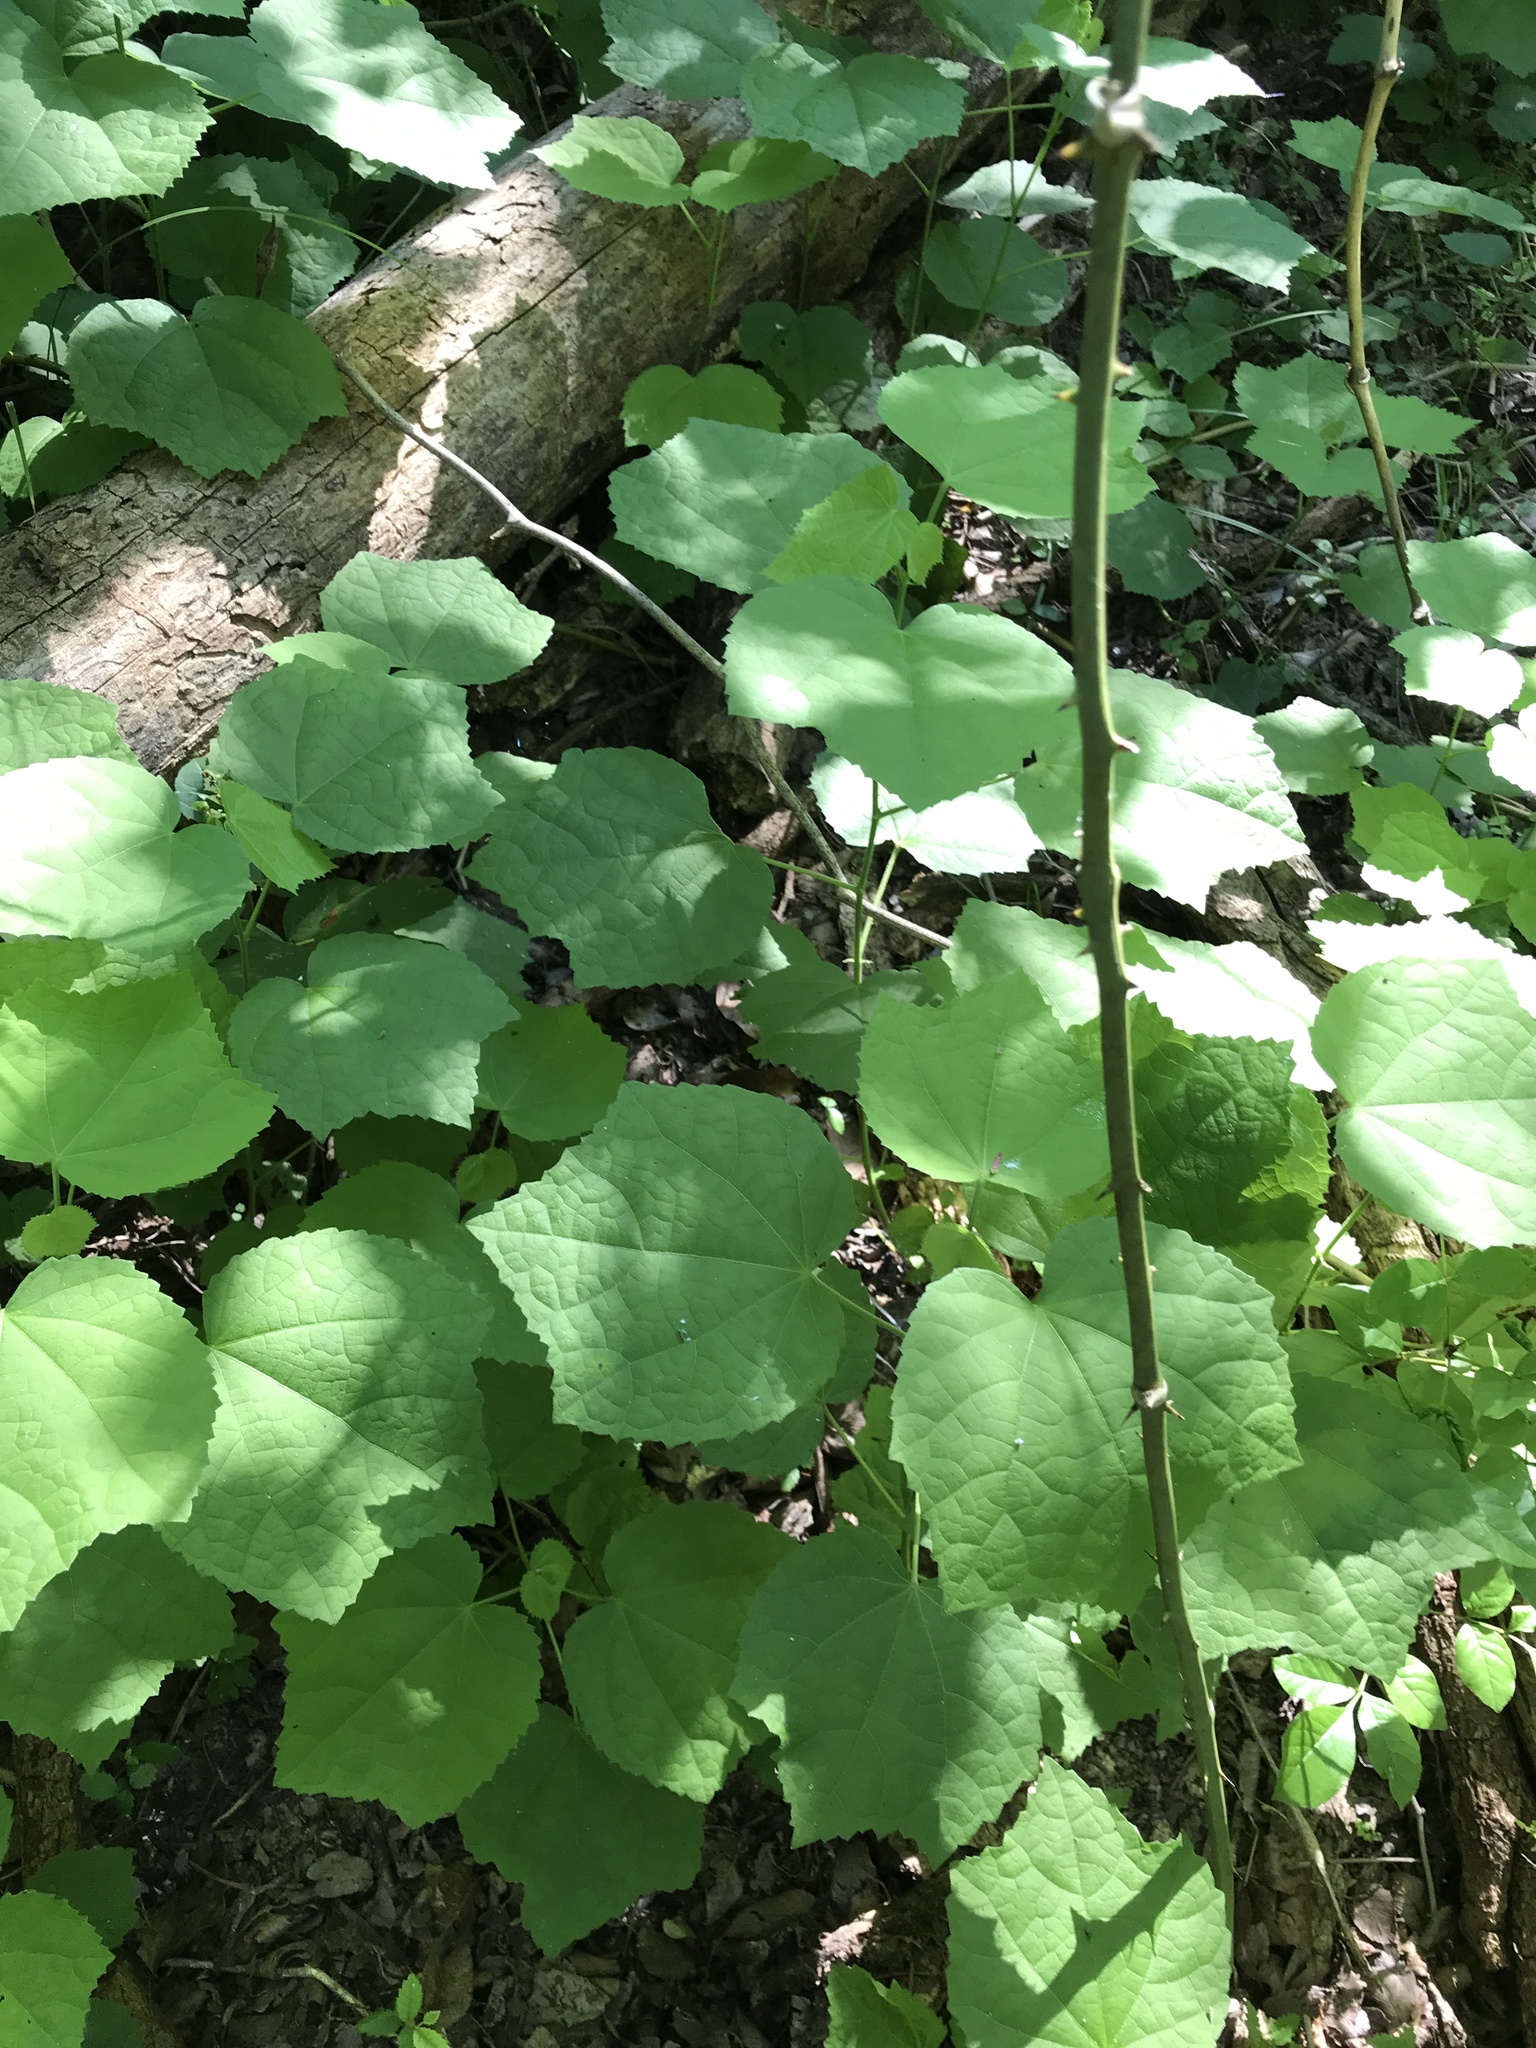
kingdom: Plantae
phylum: Tracheophyta
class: Magnoliopsida
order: Malvales
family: Malvaceae
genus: Malvaviscus
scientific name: Malvaviscus arboreus
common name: Wax mallow
